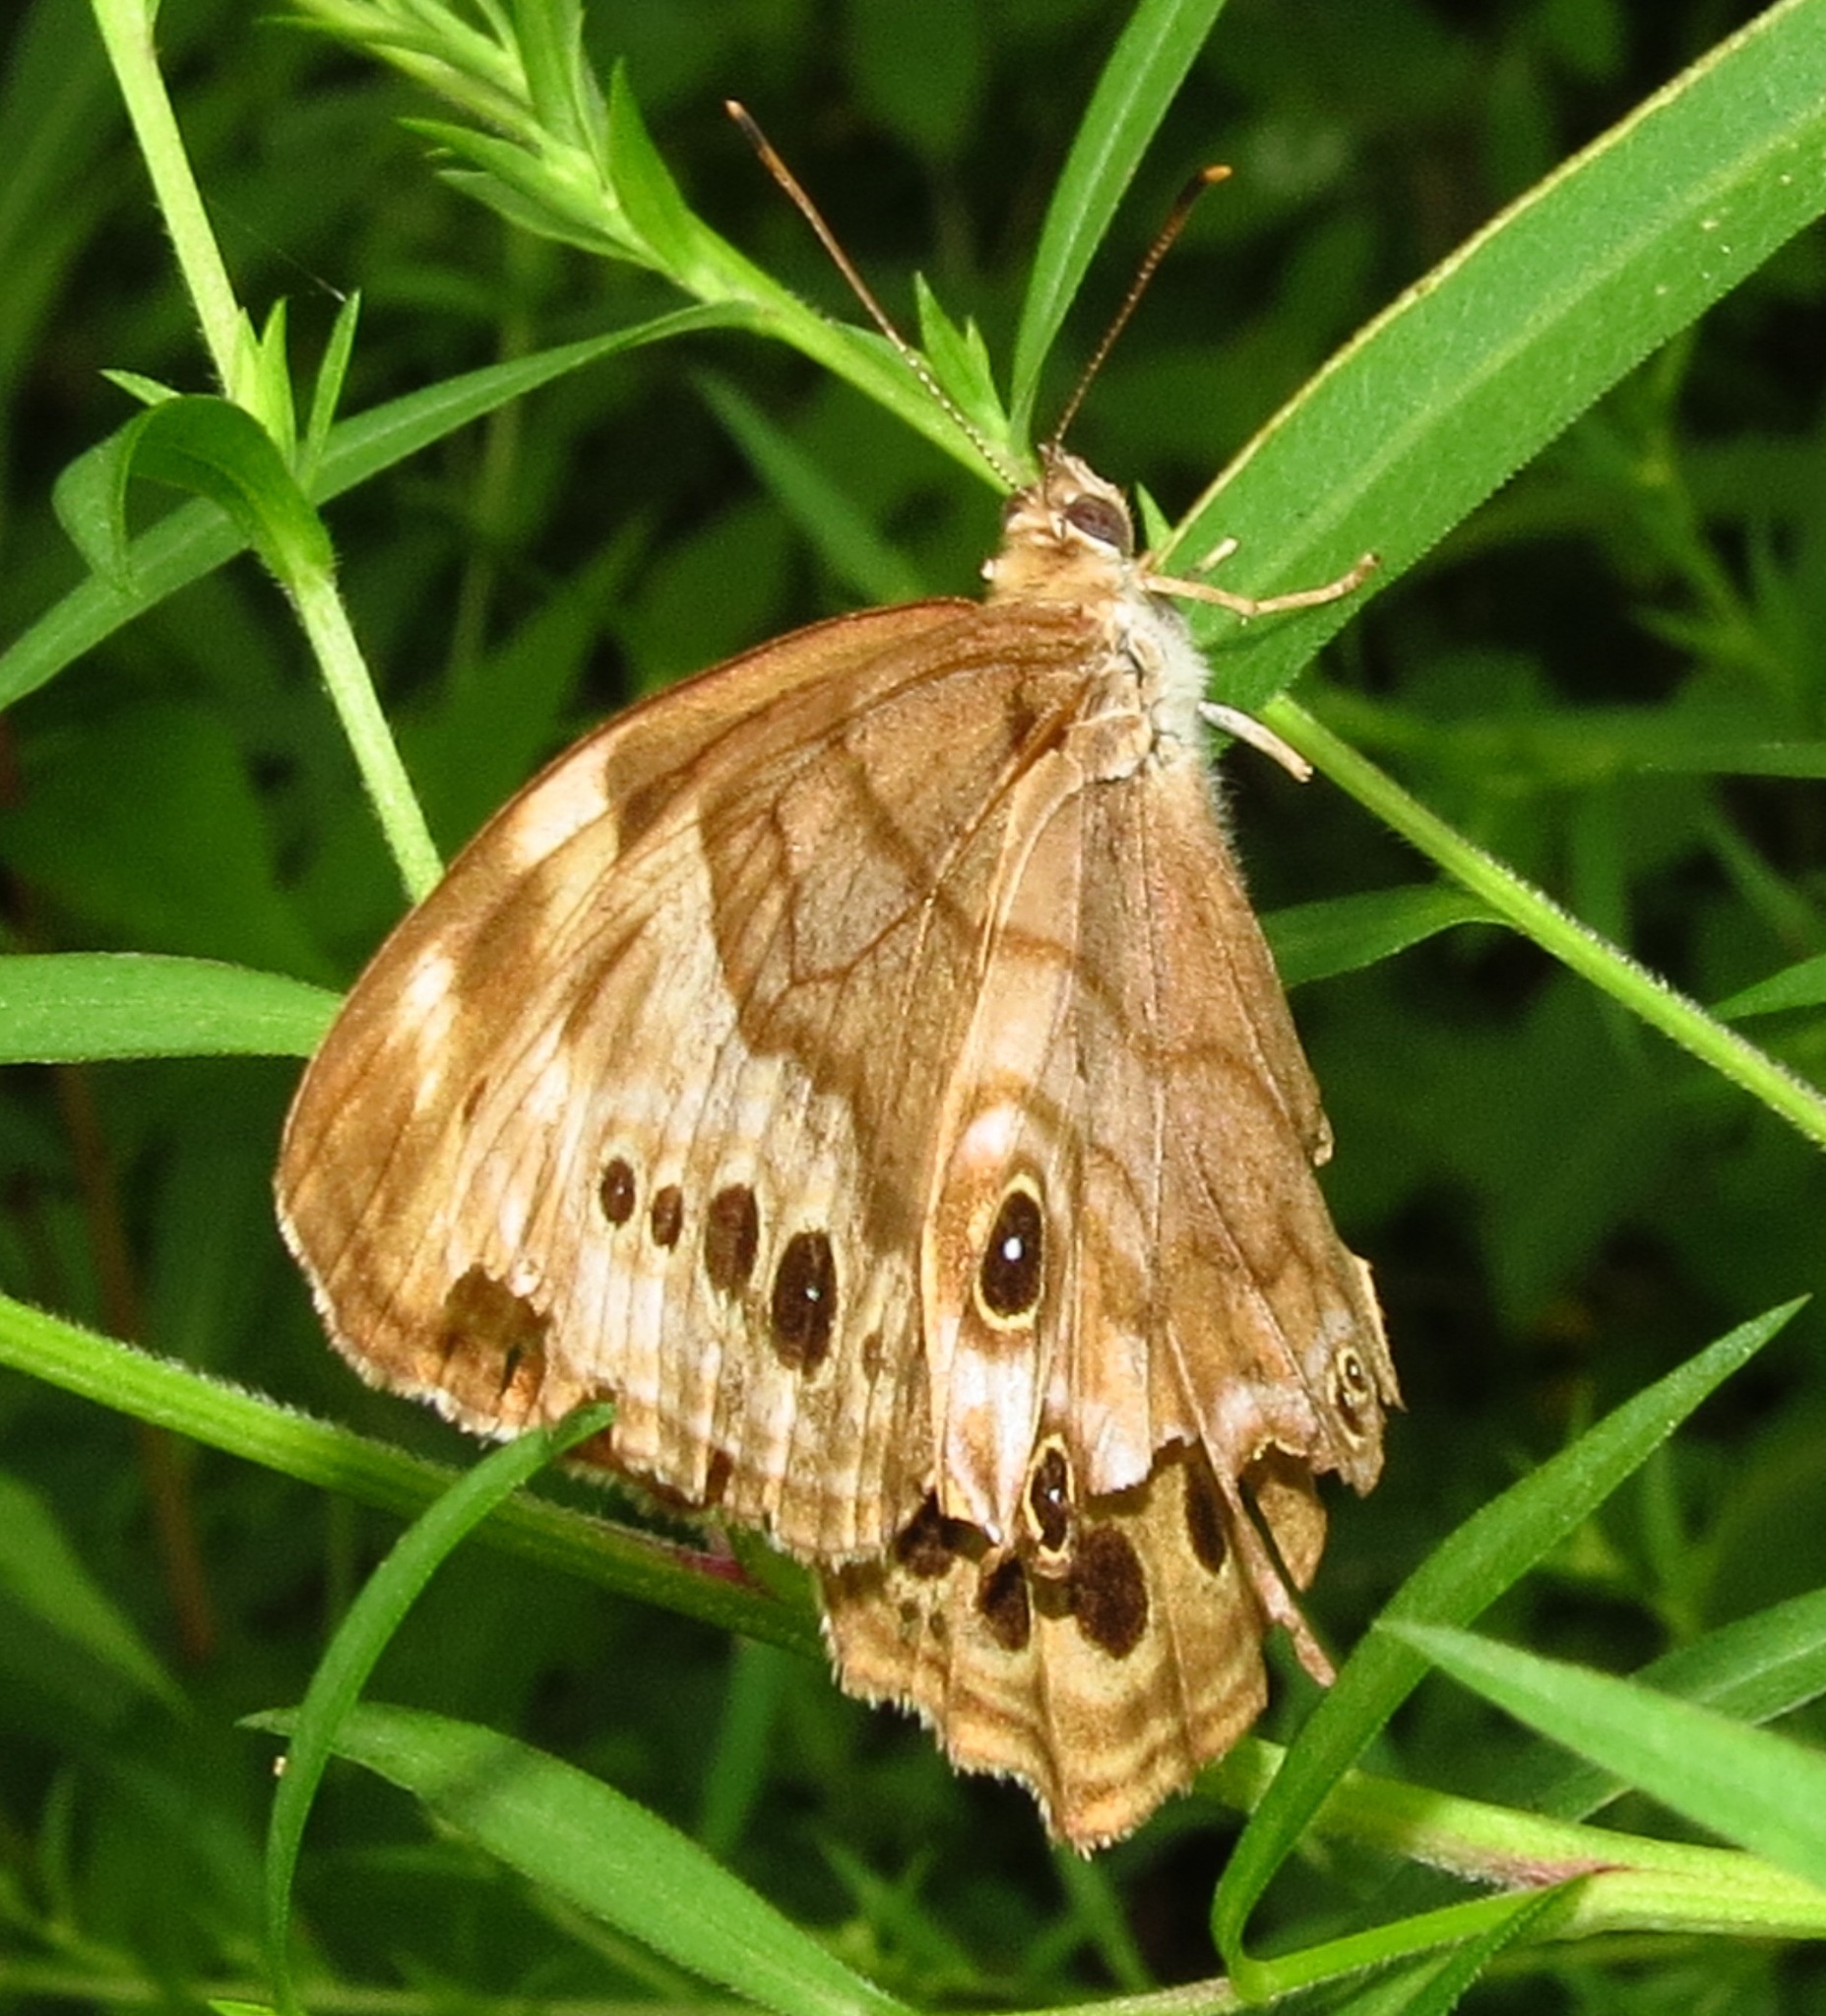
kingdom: Animalia
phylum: Arthropoda
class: Insecta
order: Lepidoptera
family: Nymphalidae
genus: Lethe
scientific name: Lethe anthedon
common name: Northern pearly-eye
